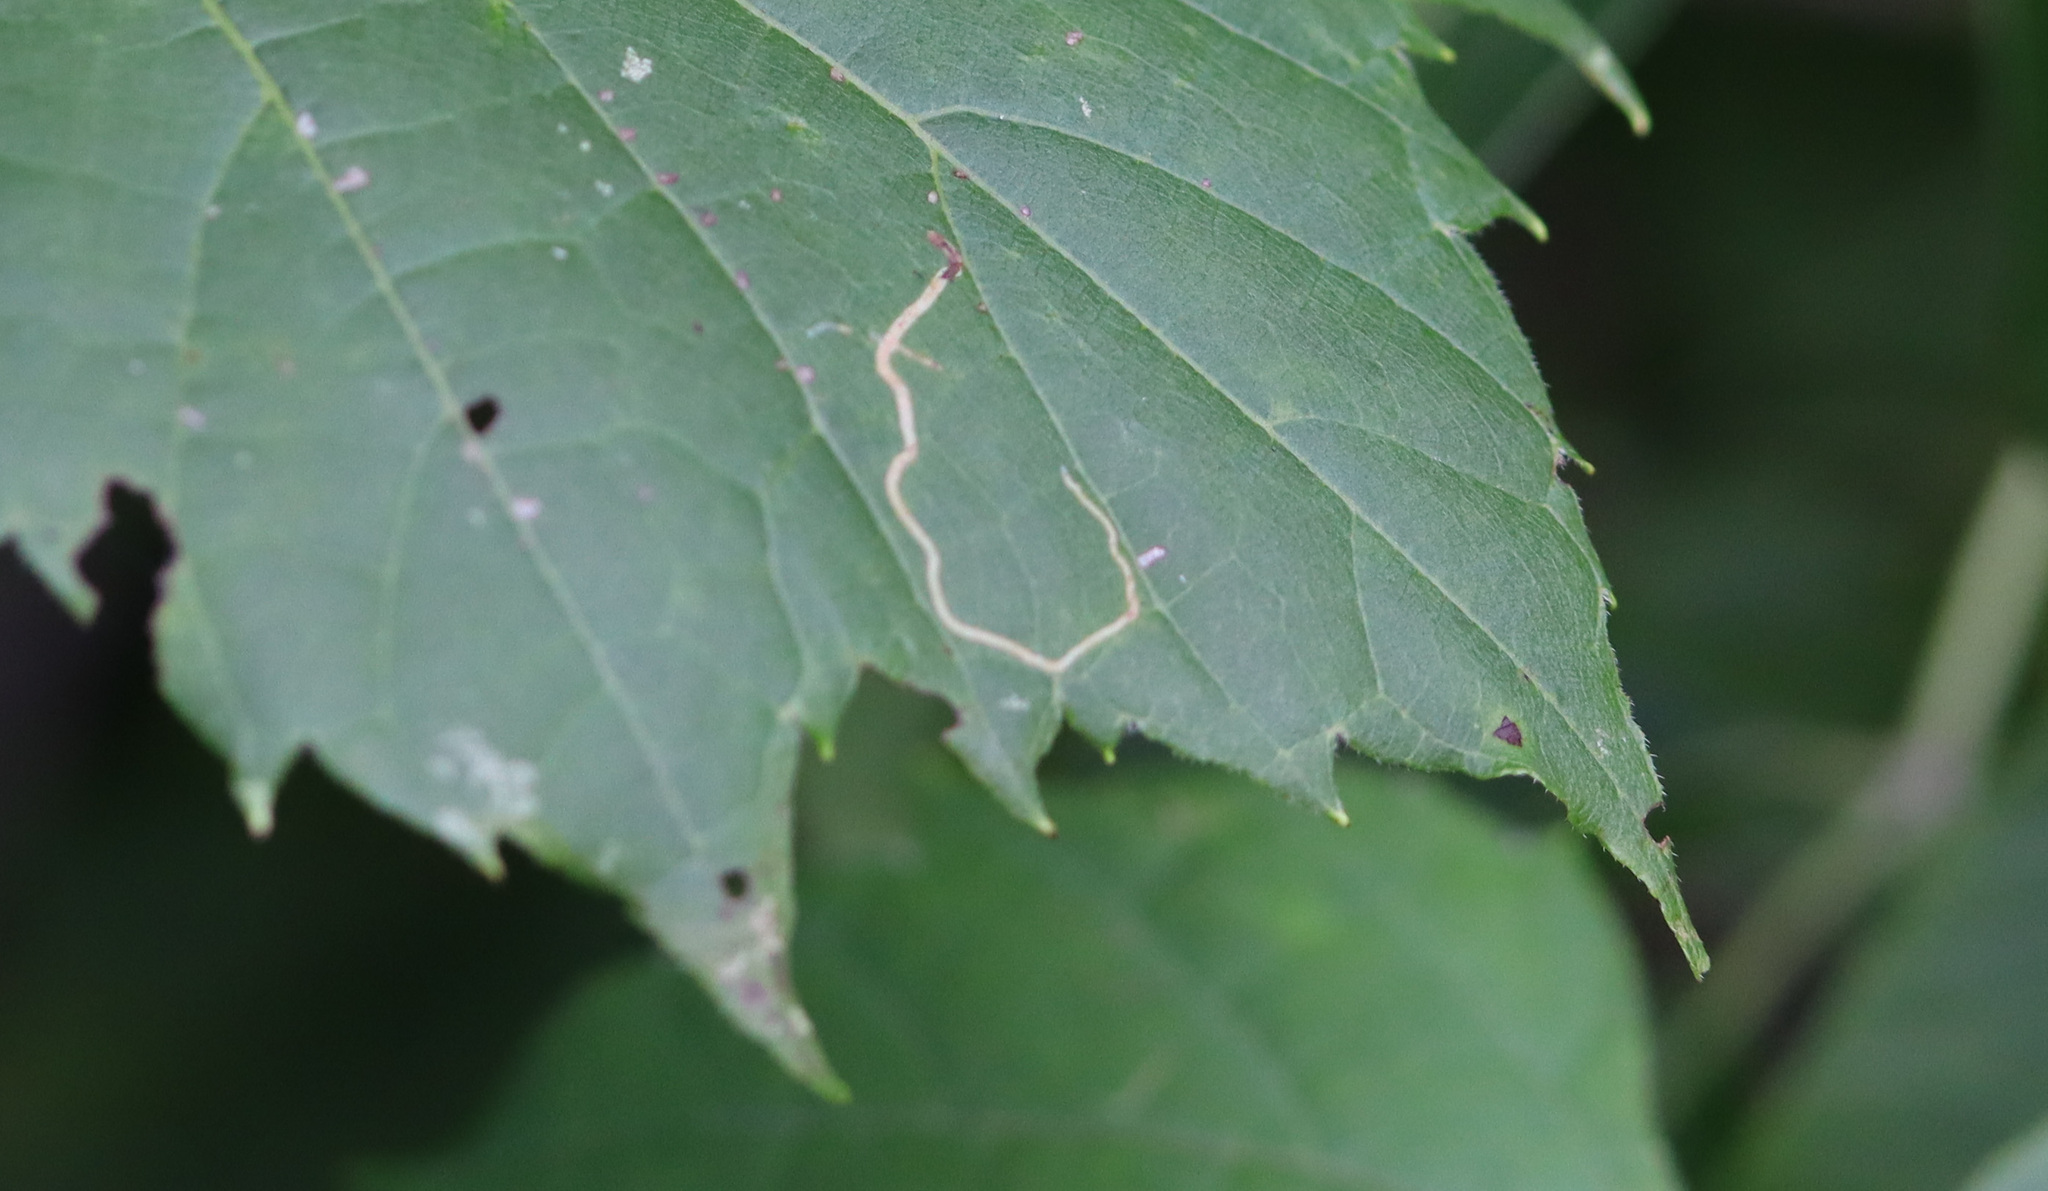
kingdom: Animalia
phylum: Arthropoda
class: Insecta
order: Lepidoptera
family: Gracillariidae
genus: Phyllocnistis
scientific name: Phyllocnistis vitifoliella
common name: Grape leaf-miner moth
